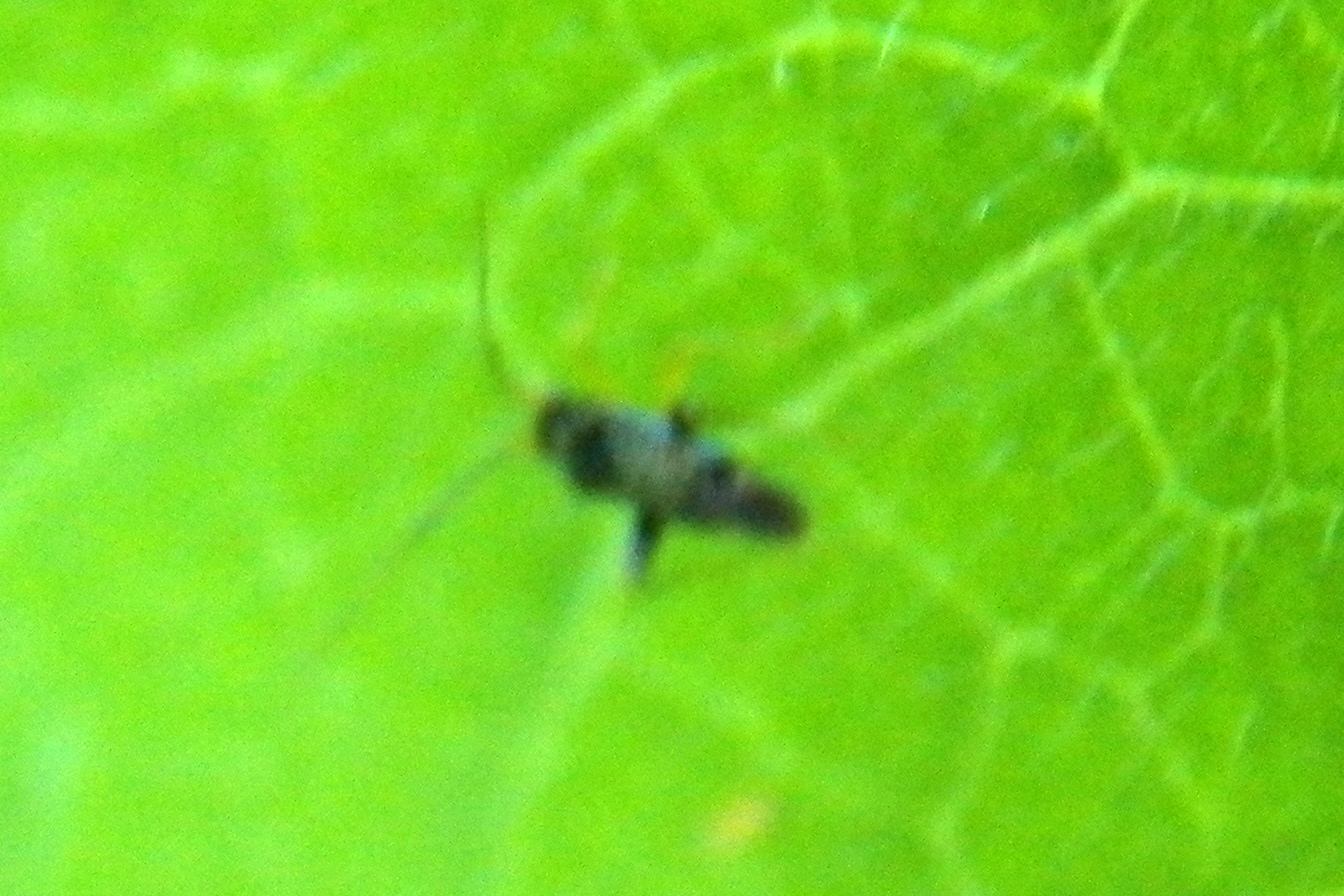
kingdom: Animalia
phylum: Arthropoda
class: Insecta
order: Hemiptera
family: Miridae
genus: Microtechnites
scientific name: Microtechnites bractatus
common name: Garden fleahopper
